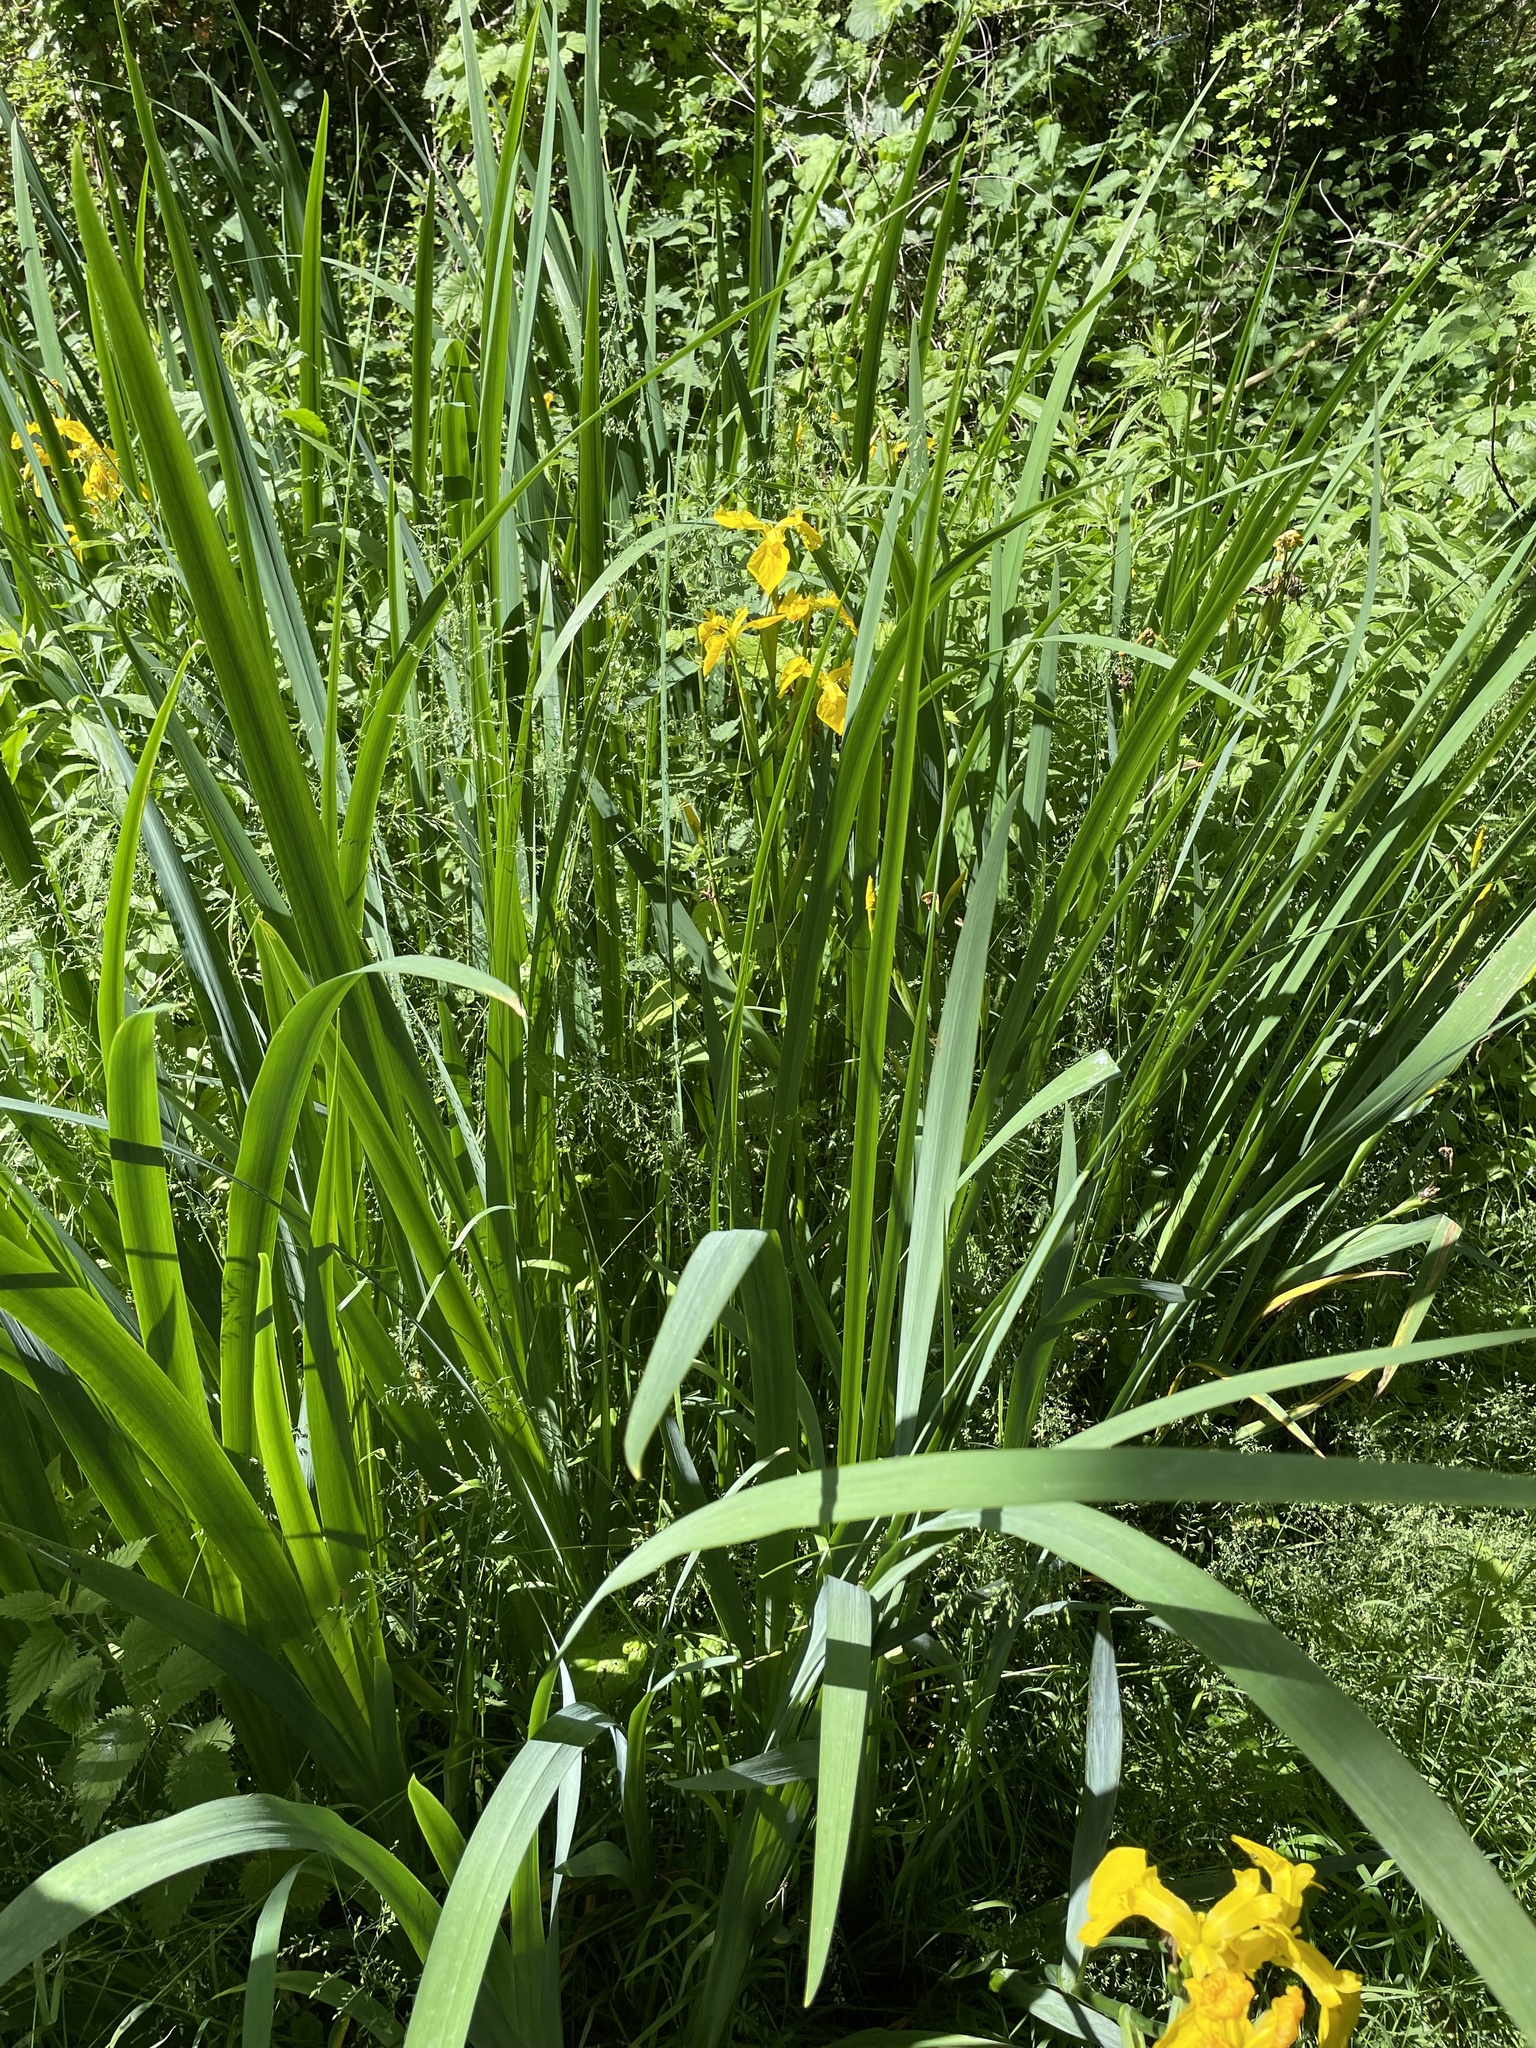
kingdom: Plantae
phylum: Tracheophyta
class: Liliopsida
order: Asparagales
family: Iridaceae
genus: Iris
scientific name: Iris pseudacorus
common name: Yellow flag
